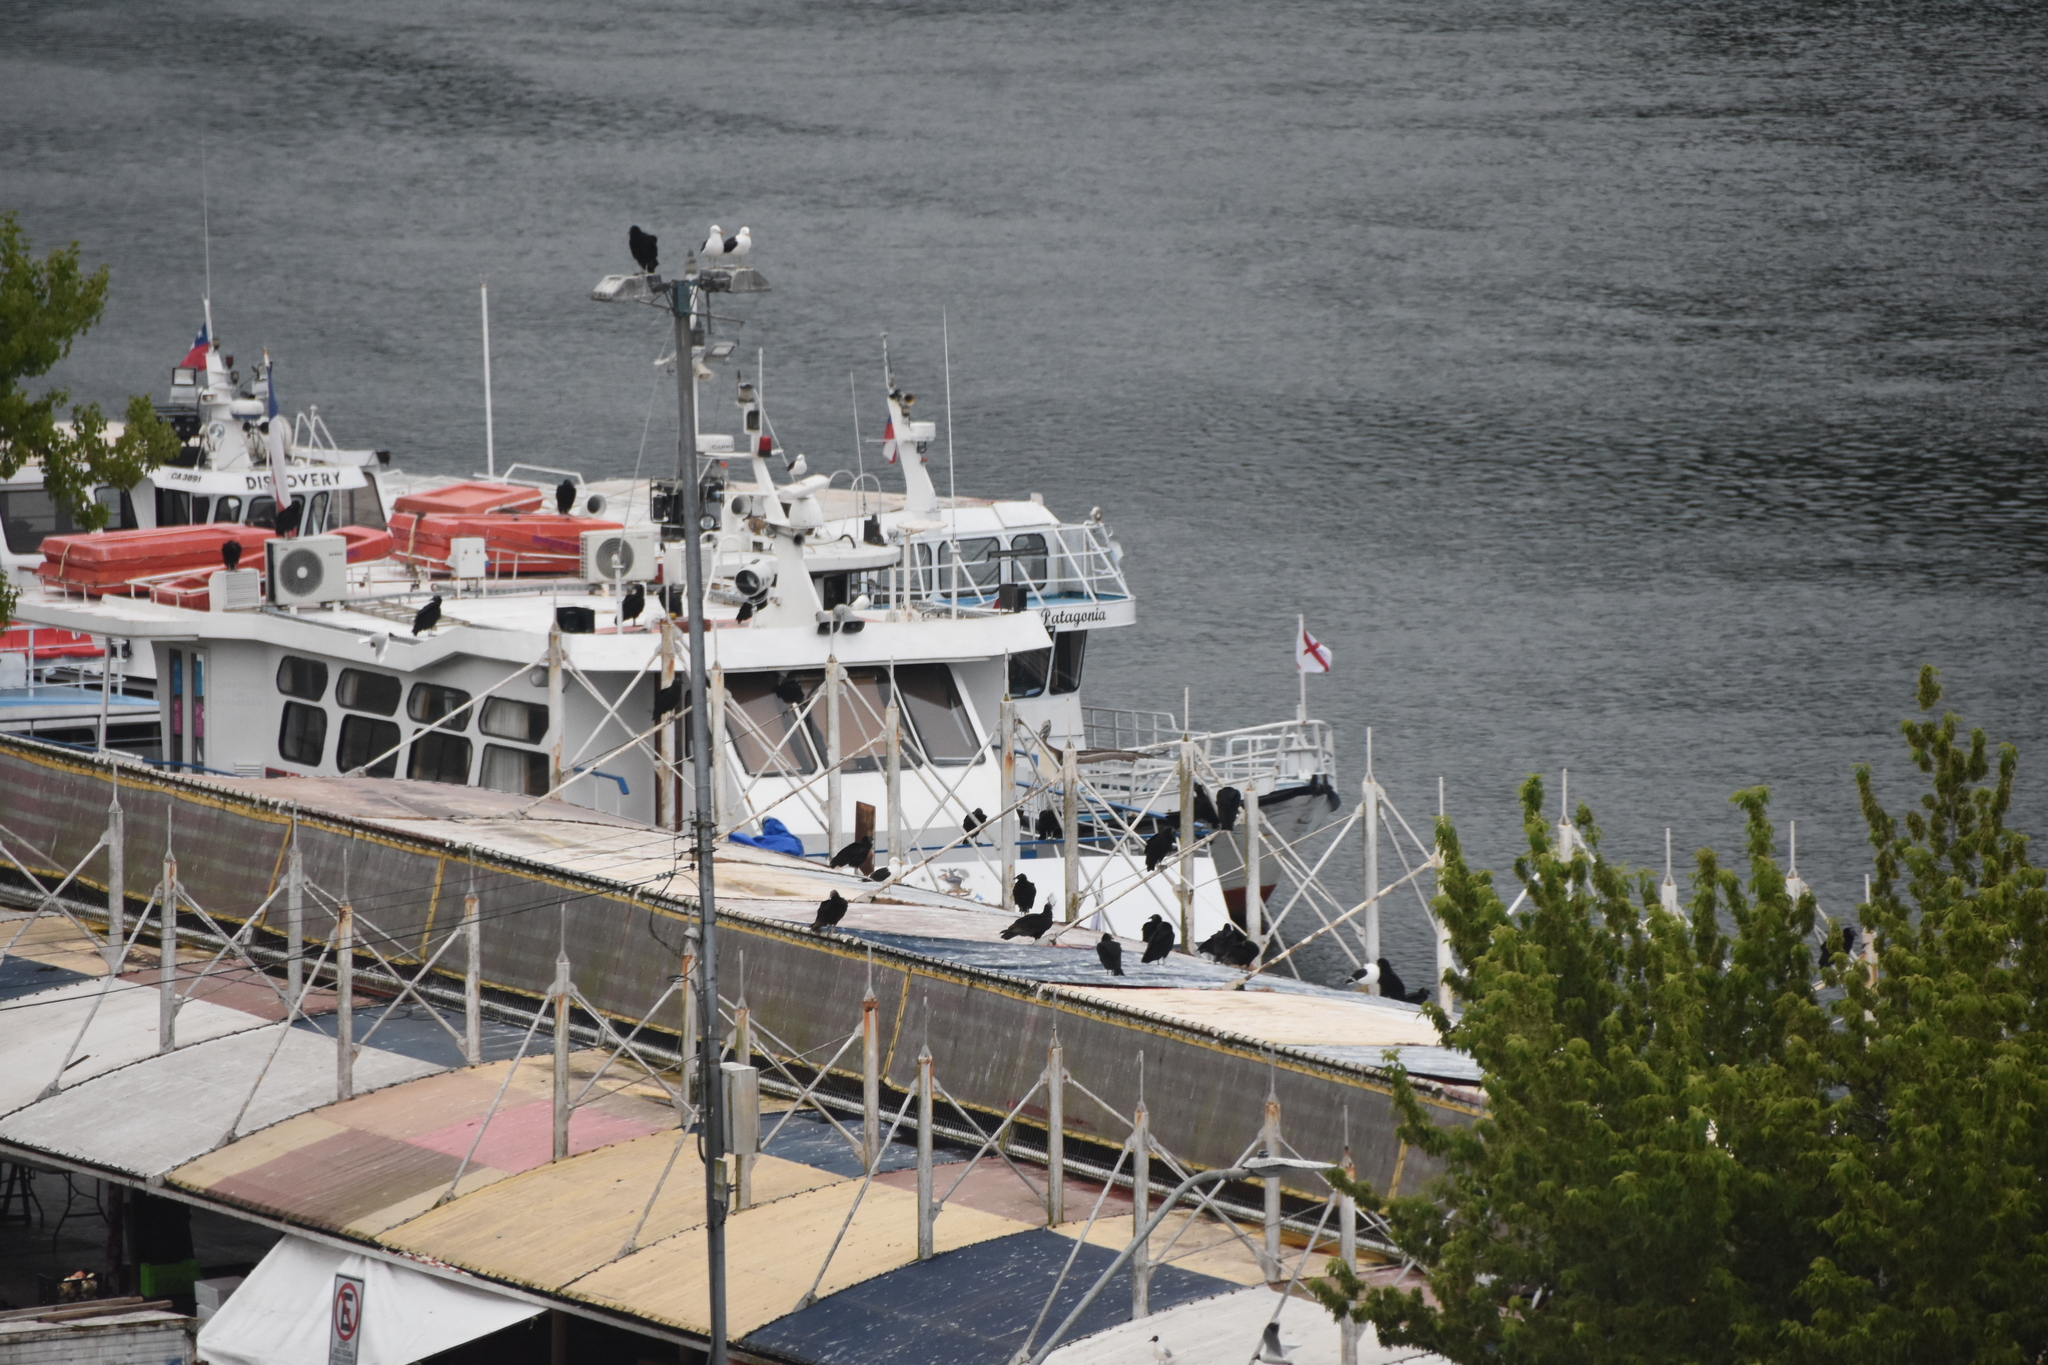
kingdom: Animalia
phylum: Chordata
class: Aves
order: Charadriiformes
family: Laridae
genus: Larus
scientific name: Larus dominicanus
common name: Kelp gull
